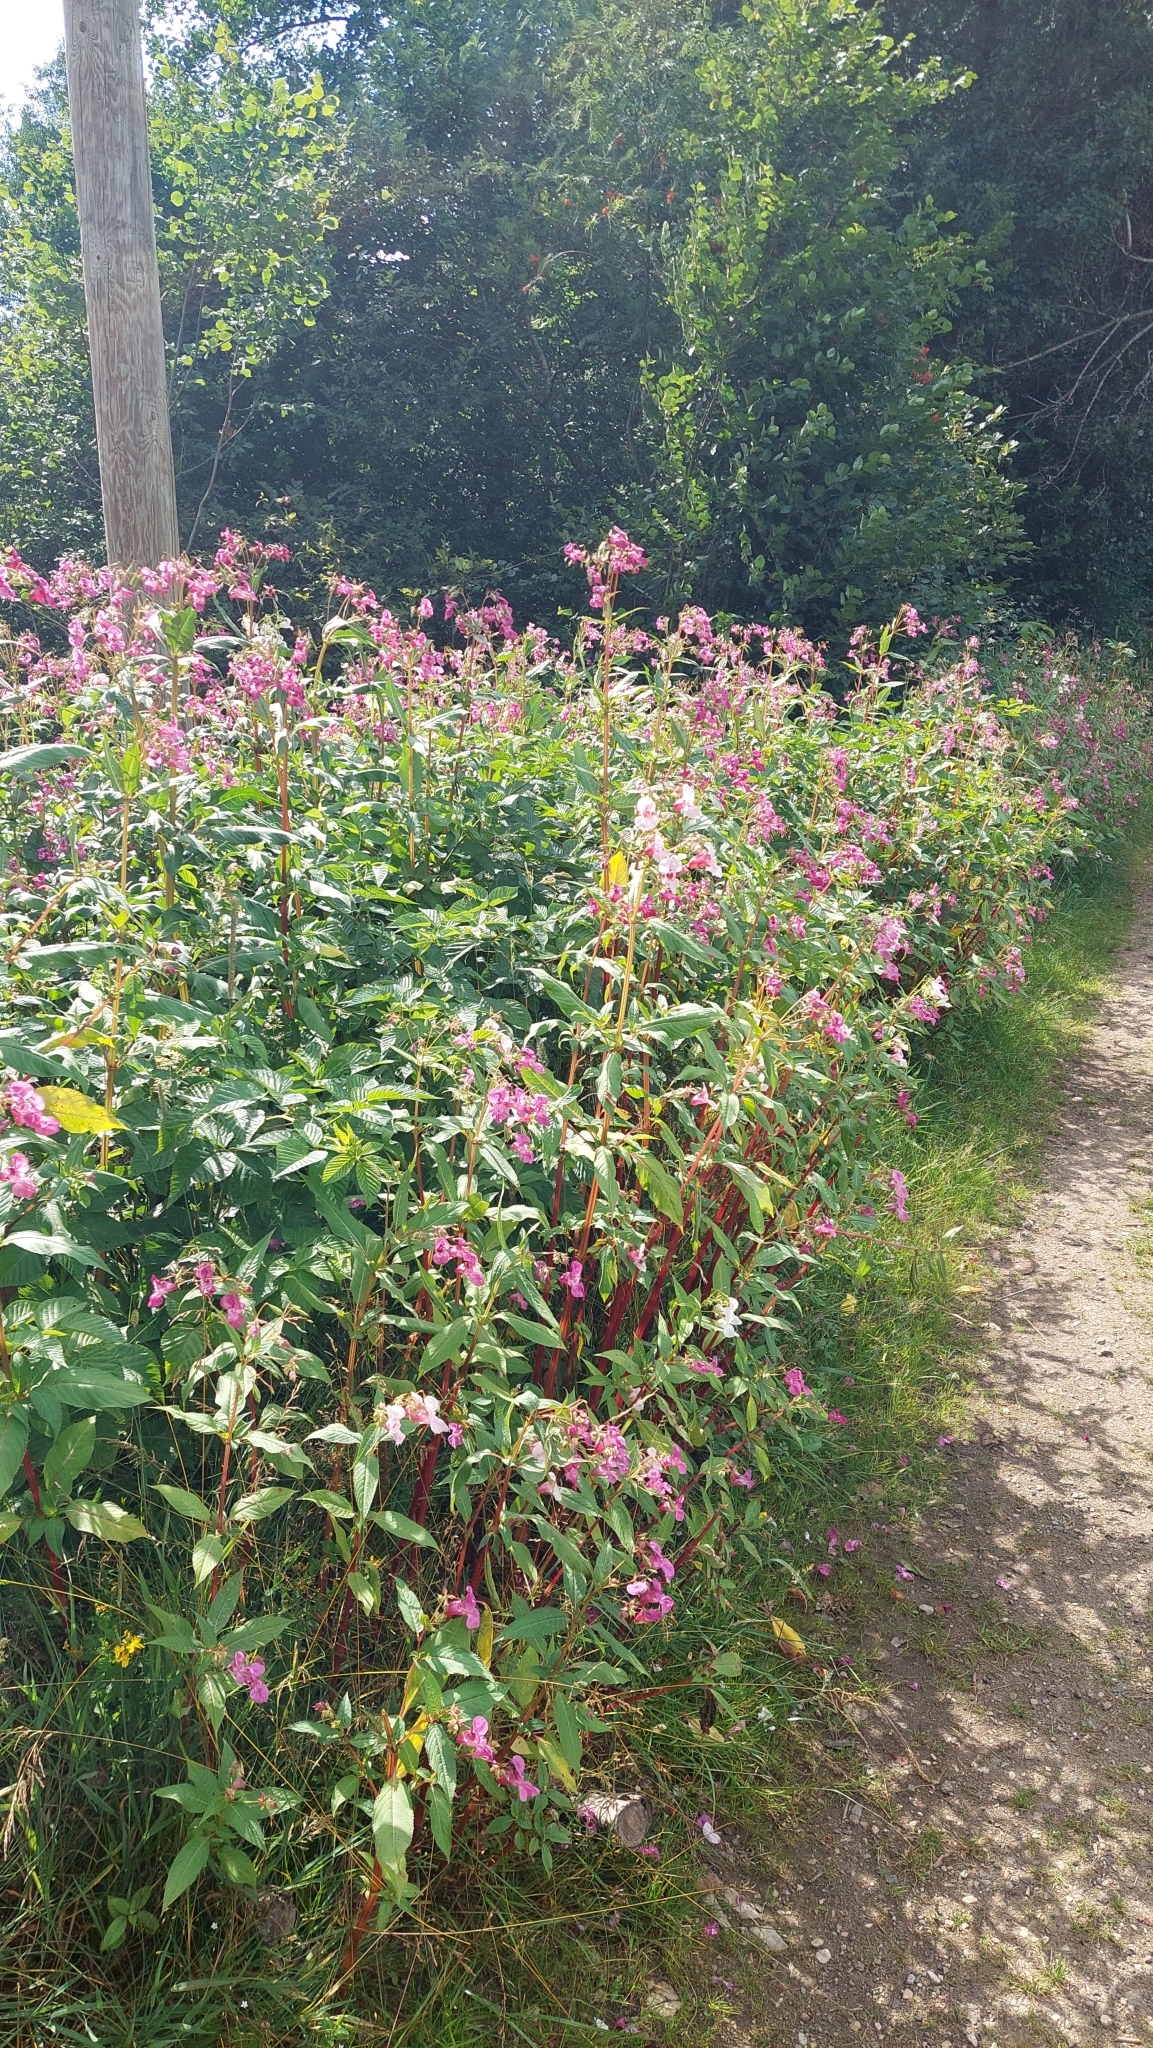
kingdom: Plantae
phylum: Tracheophyta
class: Magnoliopsida
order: Ericales
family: Balsaminaceae
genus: Impatiens
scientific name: Impatiens glandulifera
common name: Himalayan balsam
